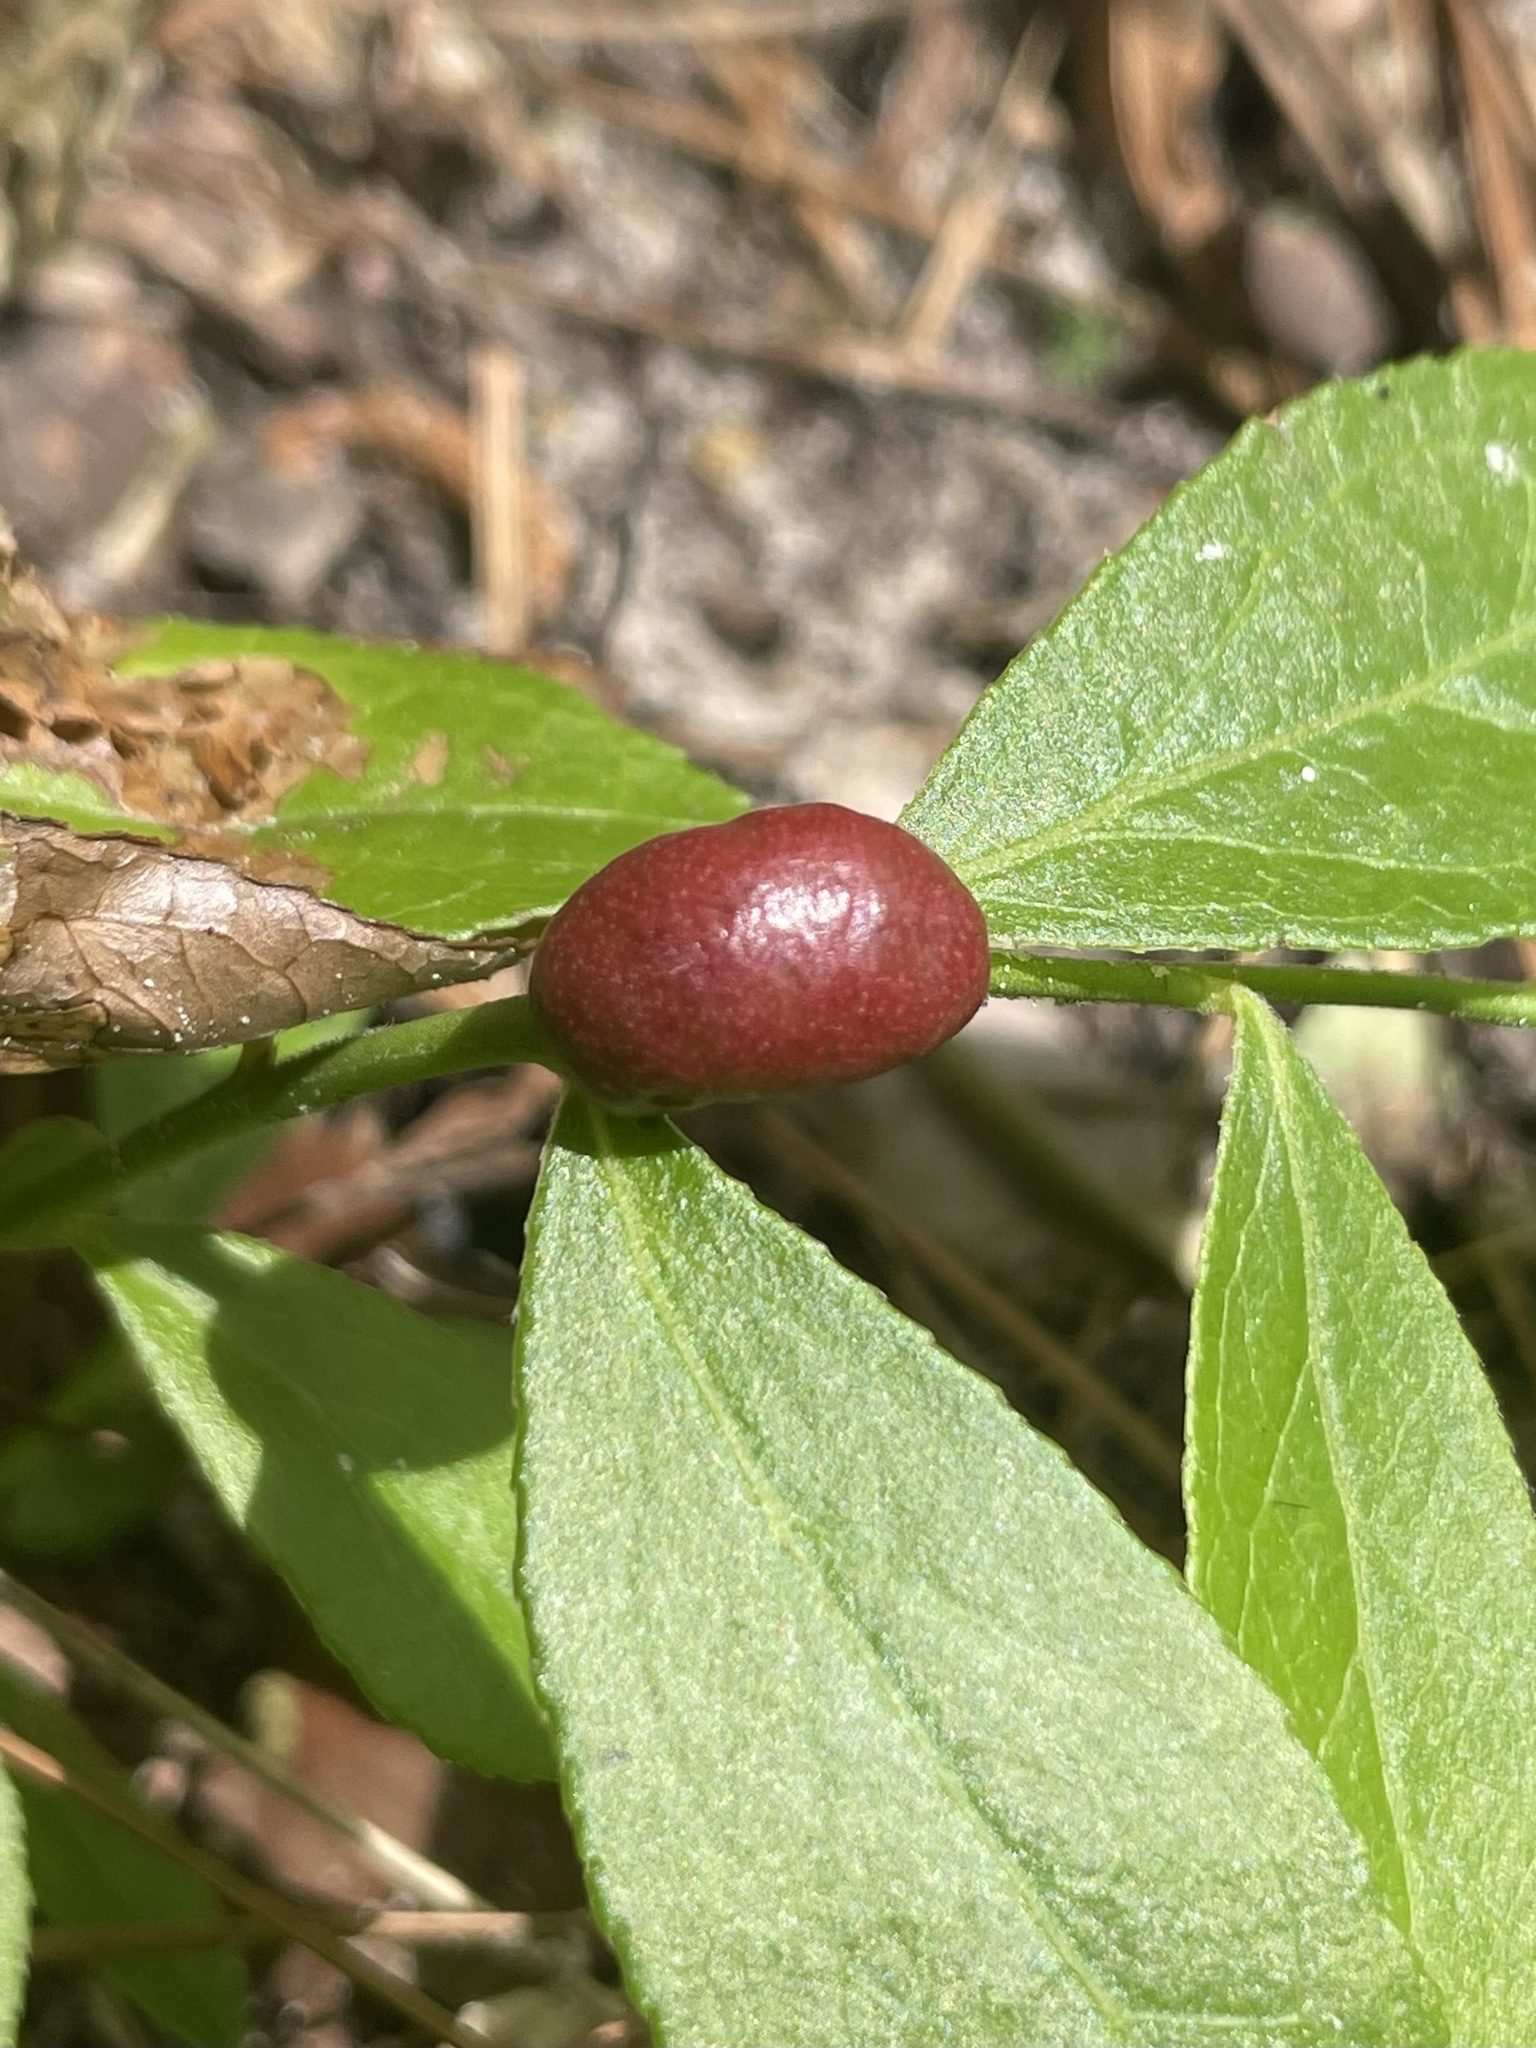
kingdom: Animalia
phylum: Arthropoda
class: Insecta
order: Hymenoptera
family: Pteromalidae
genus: Hemadas
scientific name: Hemadas nubilipennis
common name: Blueberry stem gall wasp
